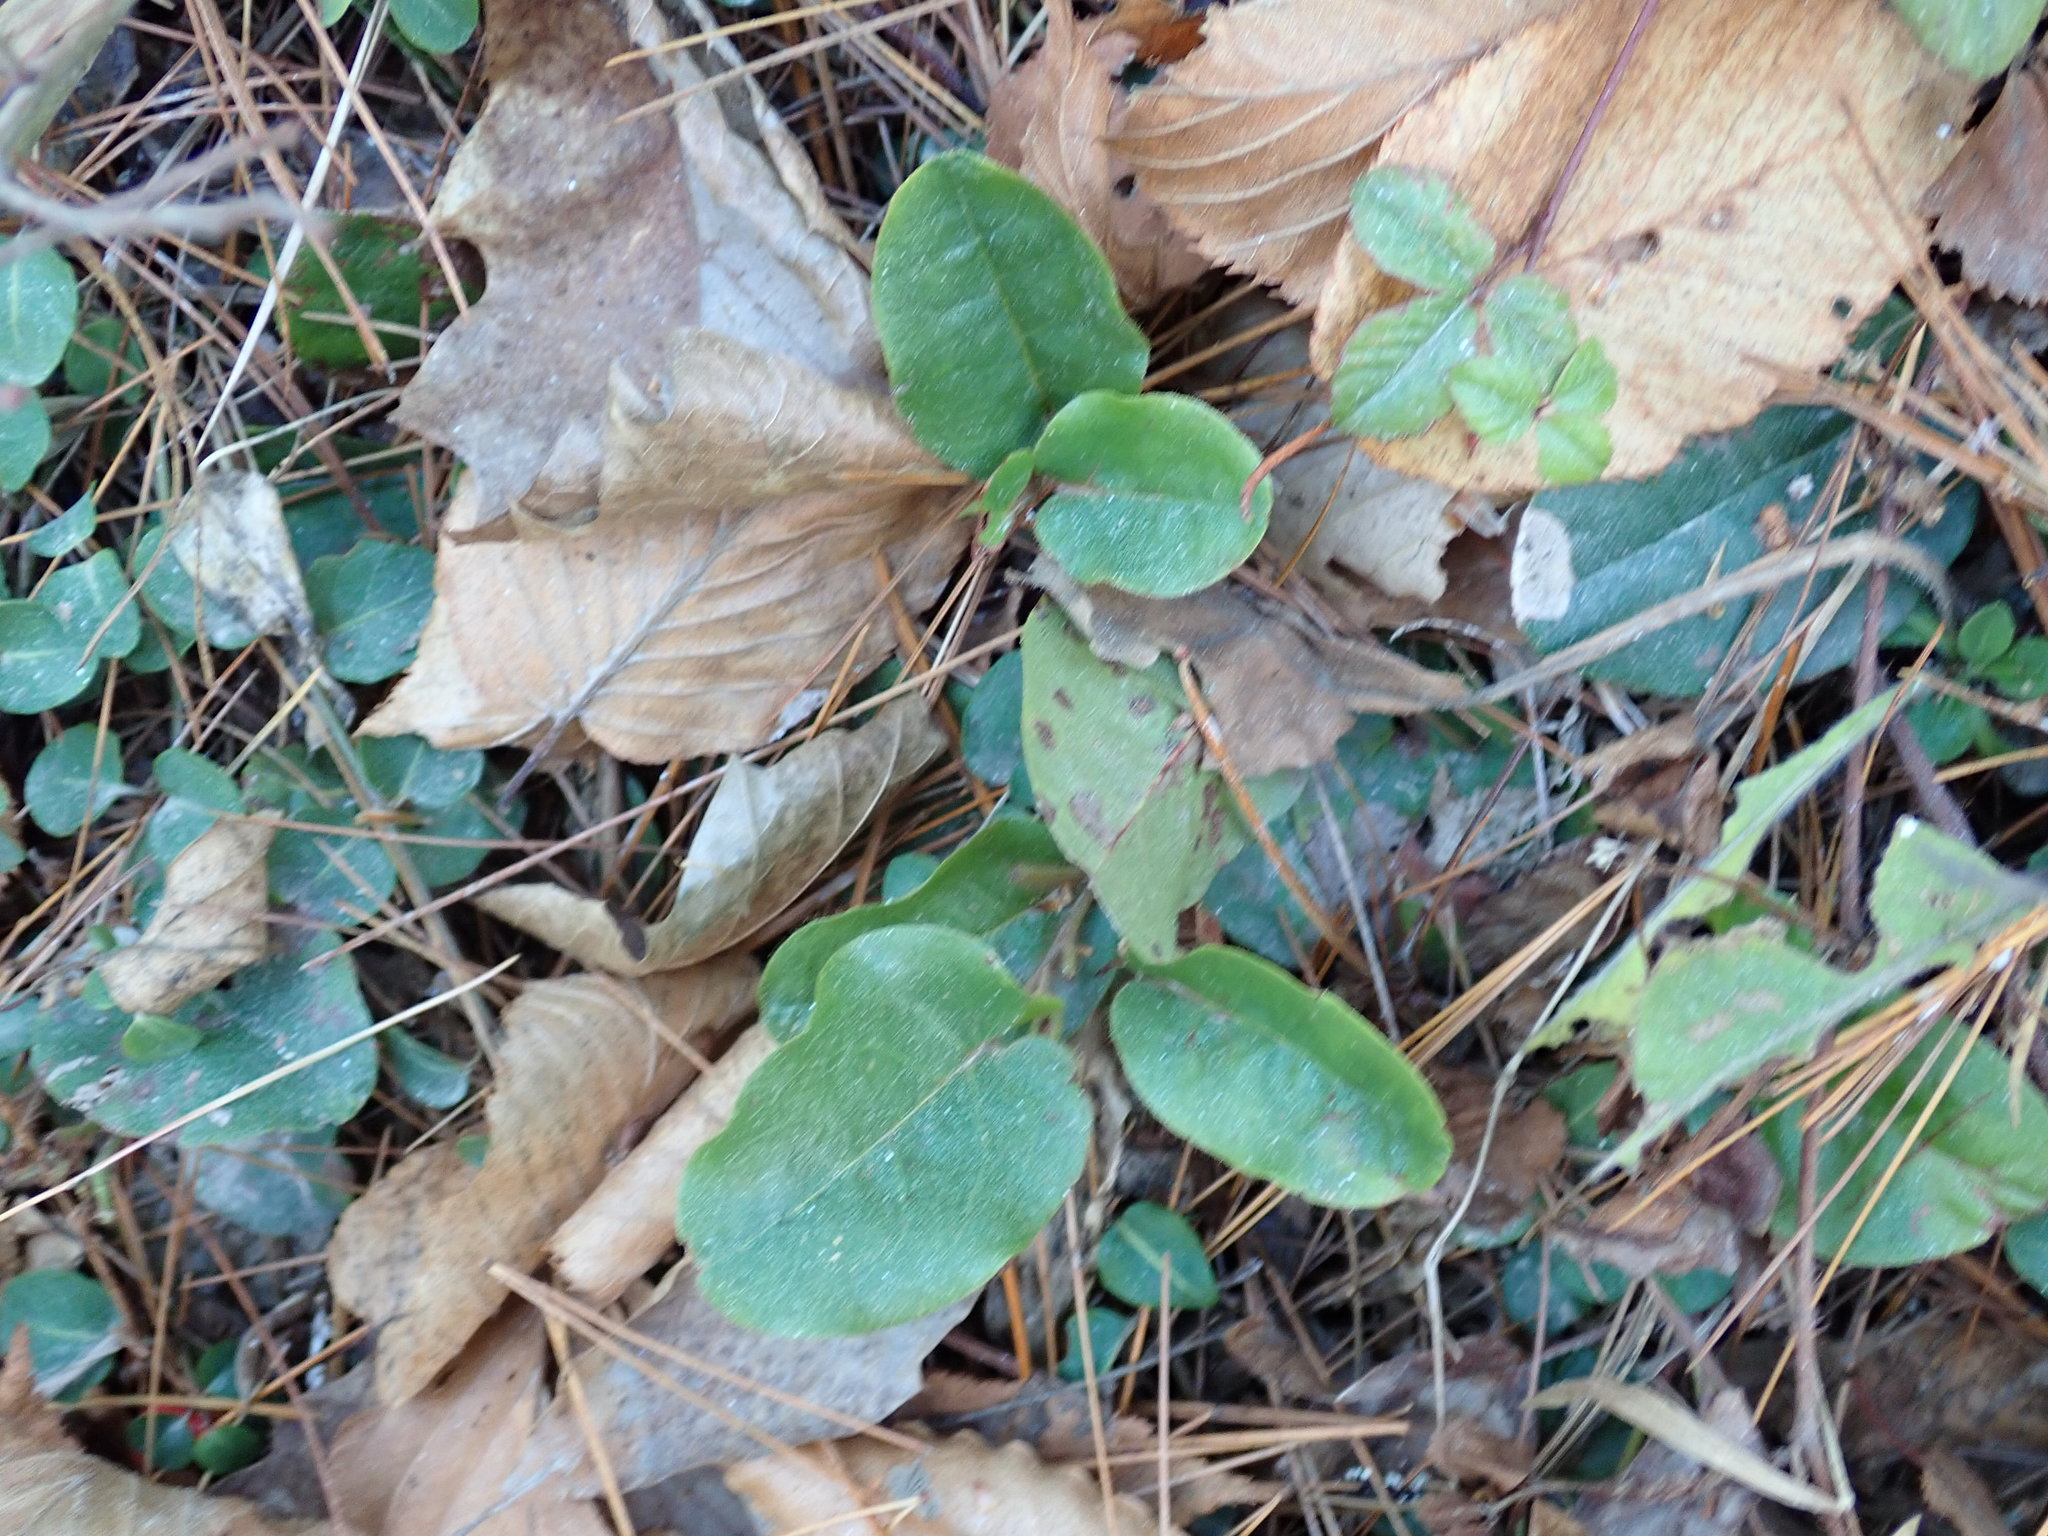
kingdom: Plantae
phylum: Tracheophyta
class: Magnoliopsida
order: Ericales
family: Ericaceae
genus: Epigaea
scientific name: Epigaea repens
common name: Gravelroot
